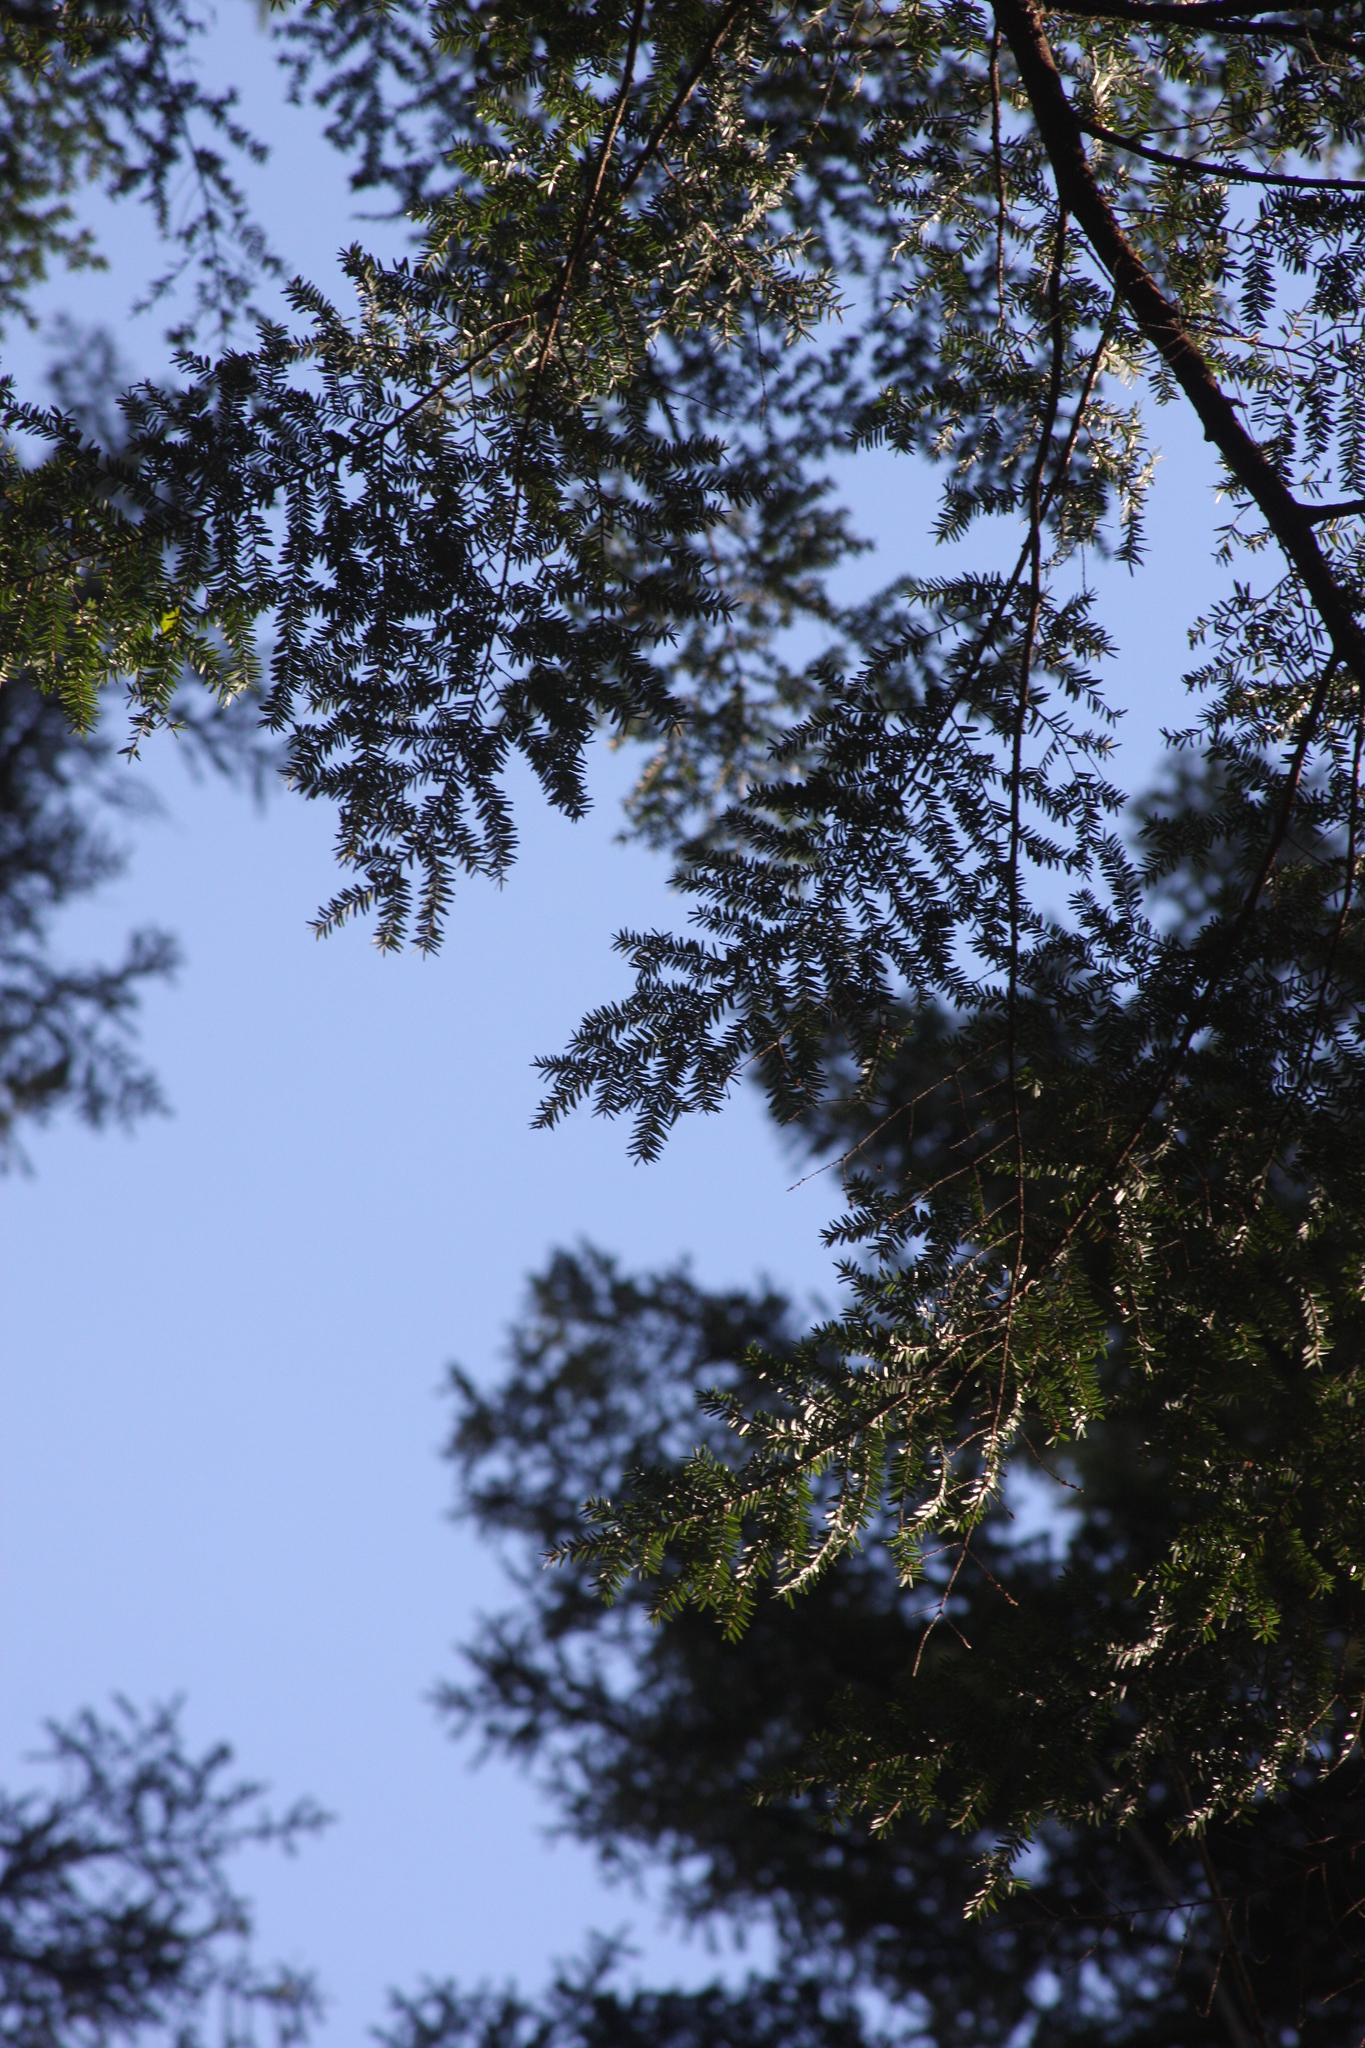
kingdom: Plantae
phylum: Tracheophyta
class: Pinopsida
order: Pinales
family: Pinaceae
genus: Tsuga
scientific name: Tsuga canadensis
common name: Eastern hemlock
